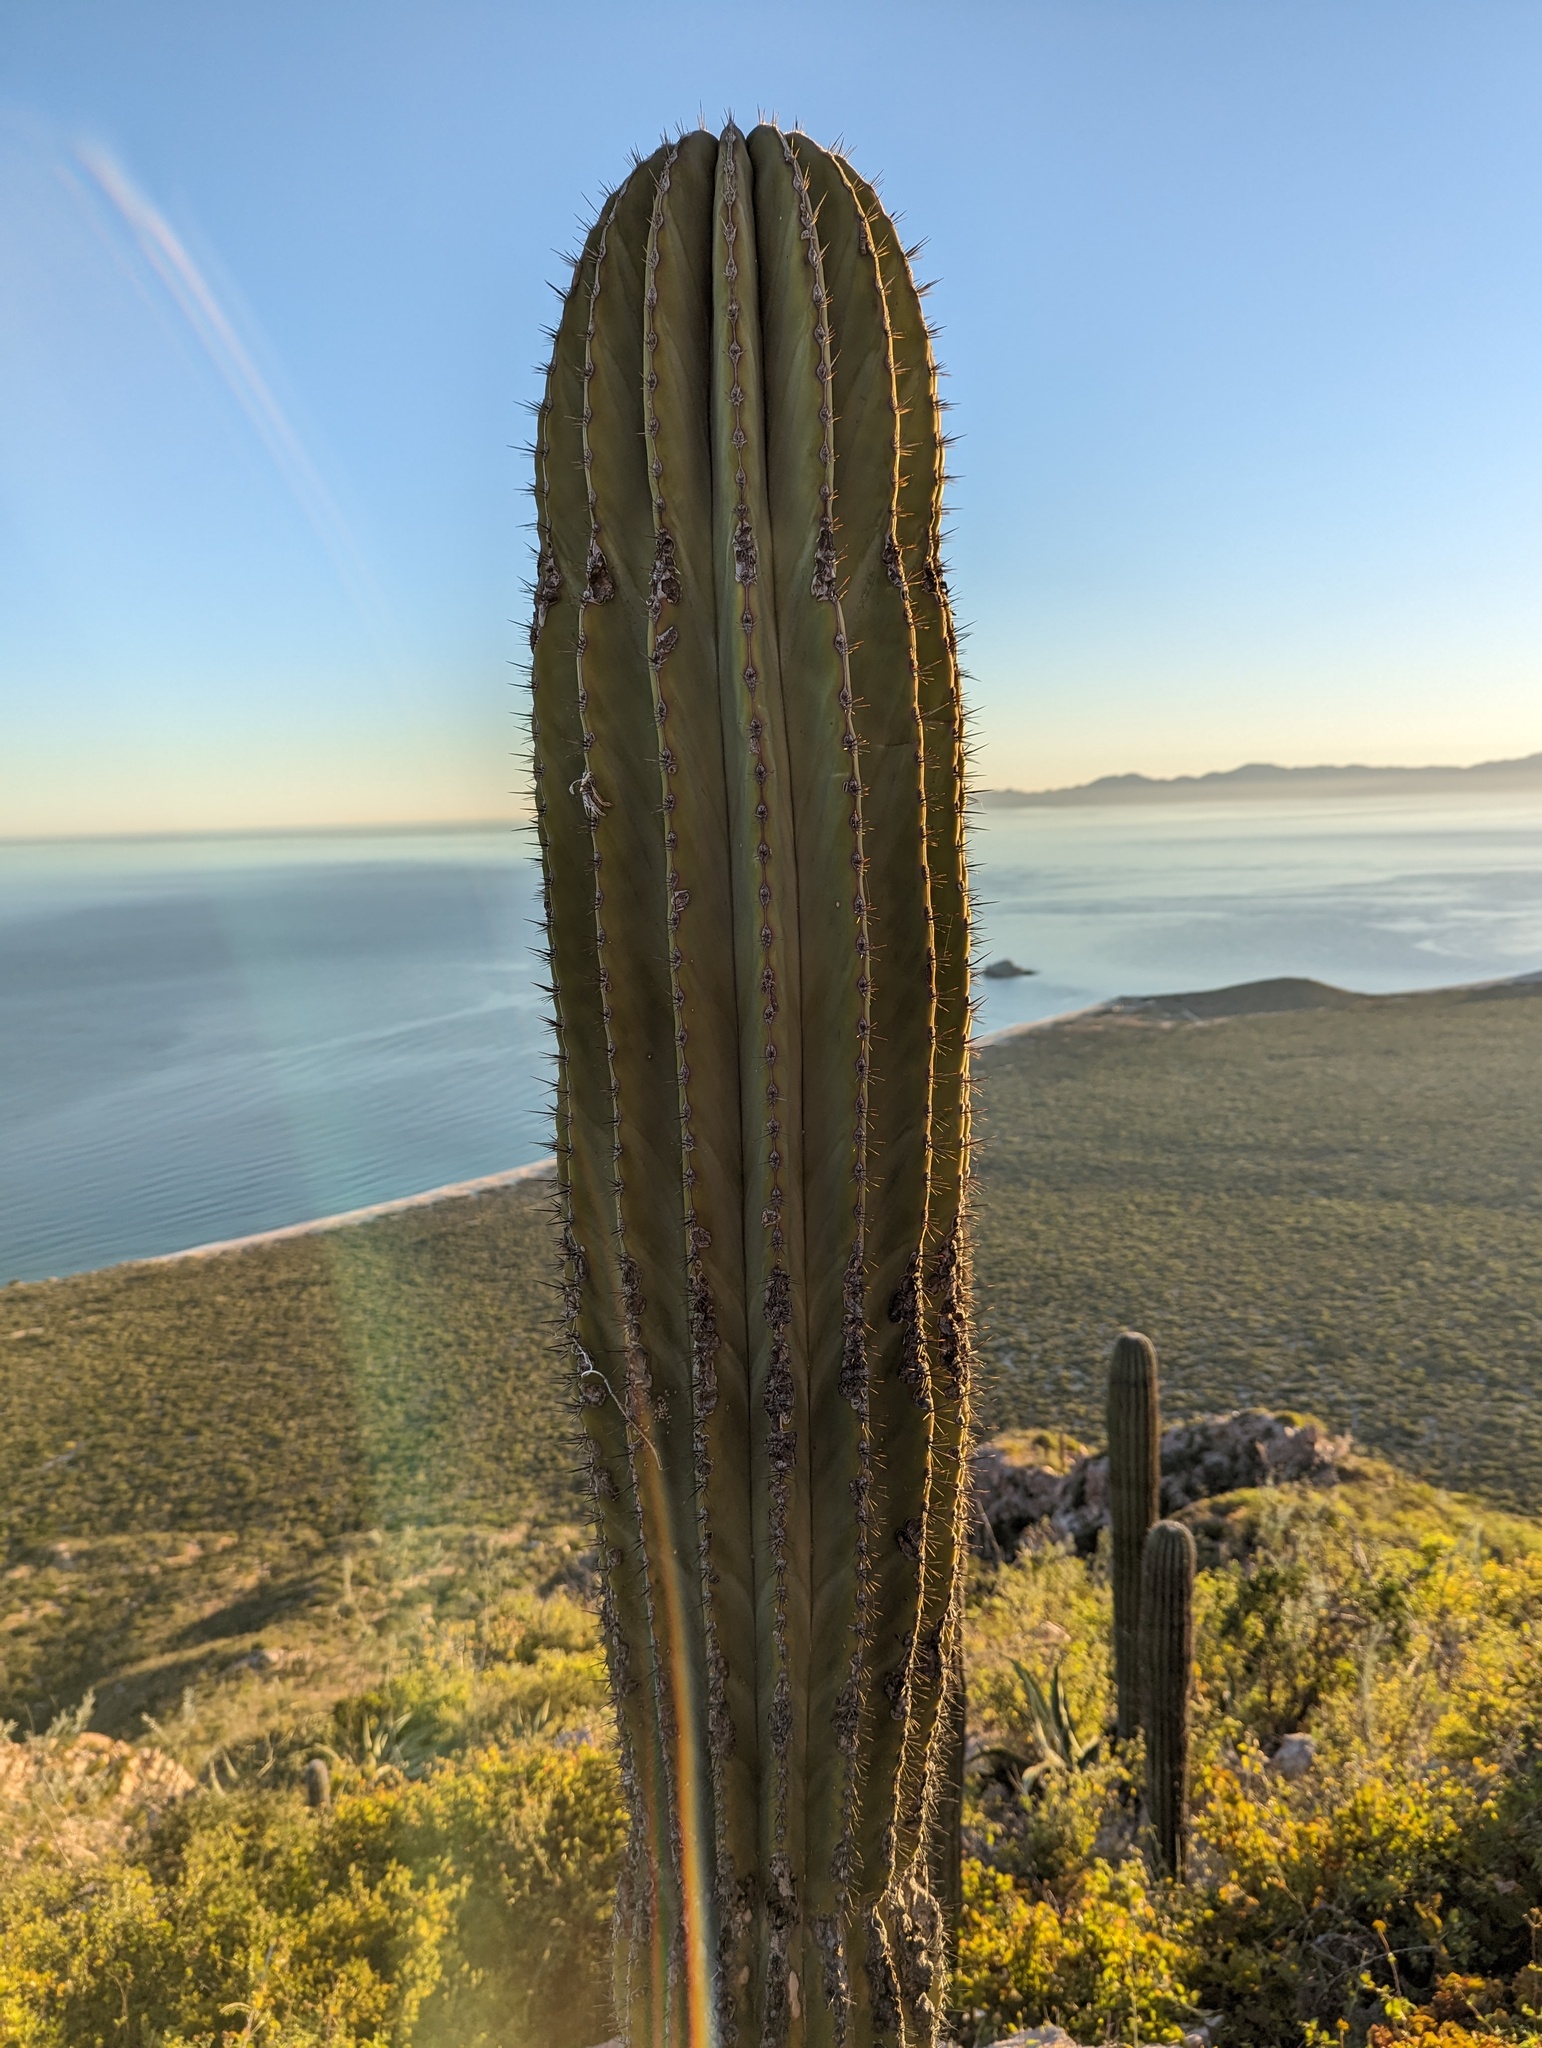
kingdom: Plantae
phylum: Tracheophyta
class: Magnoliopsida
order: Caryophyllales
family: Cactaceae
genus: Pachycereus
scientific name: Pachycereus pringlei
